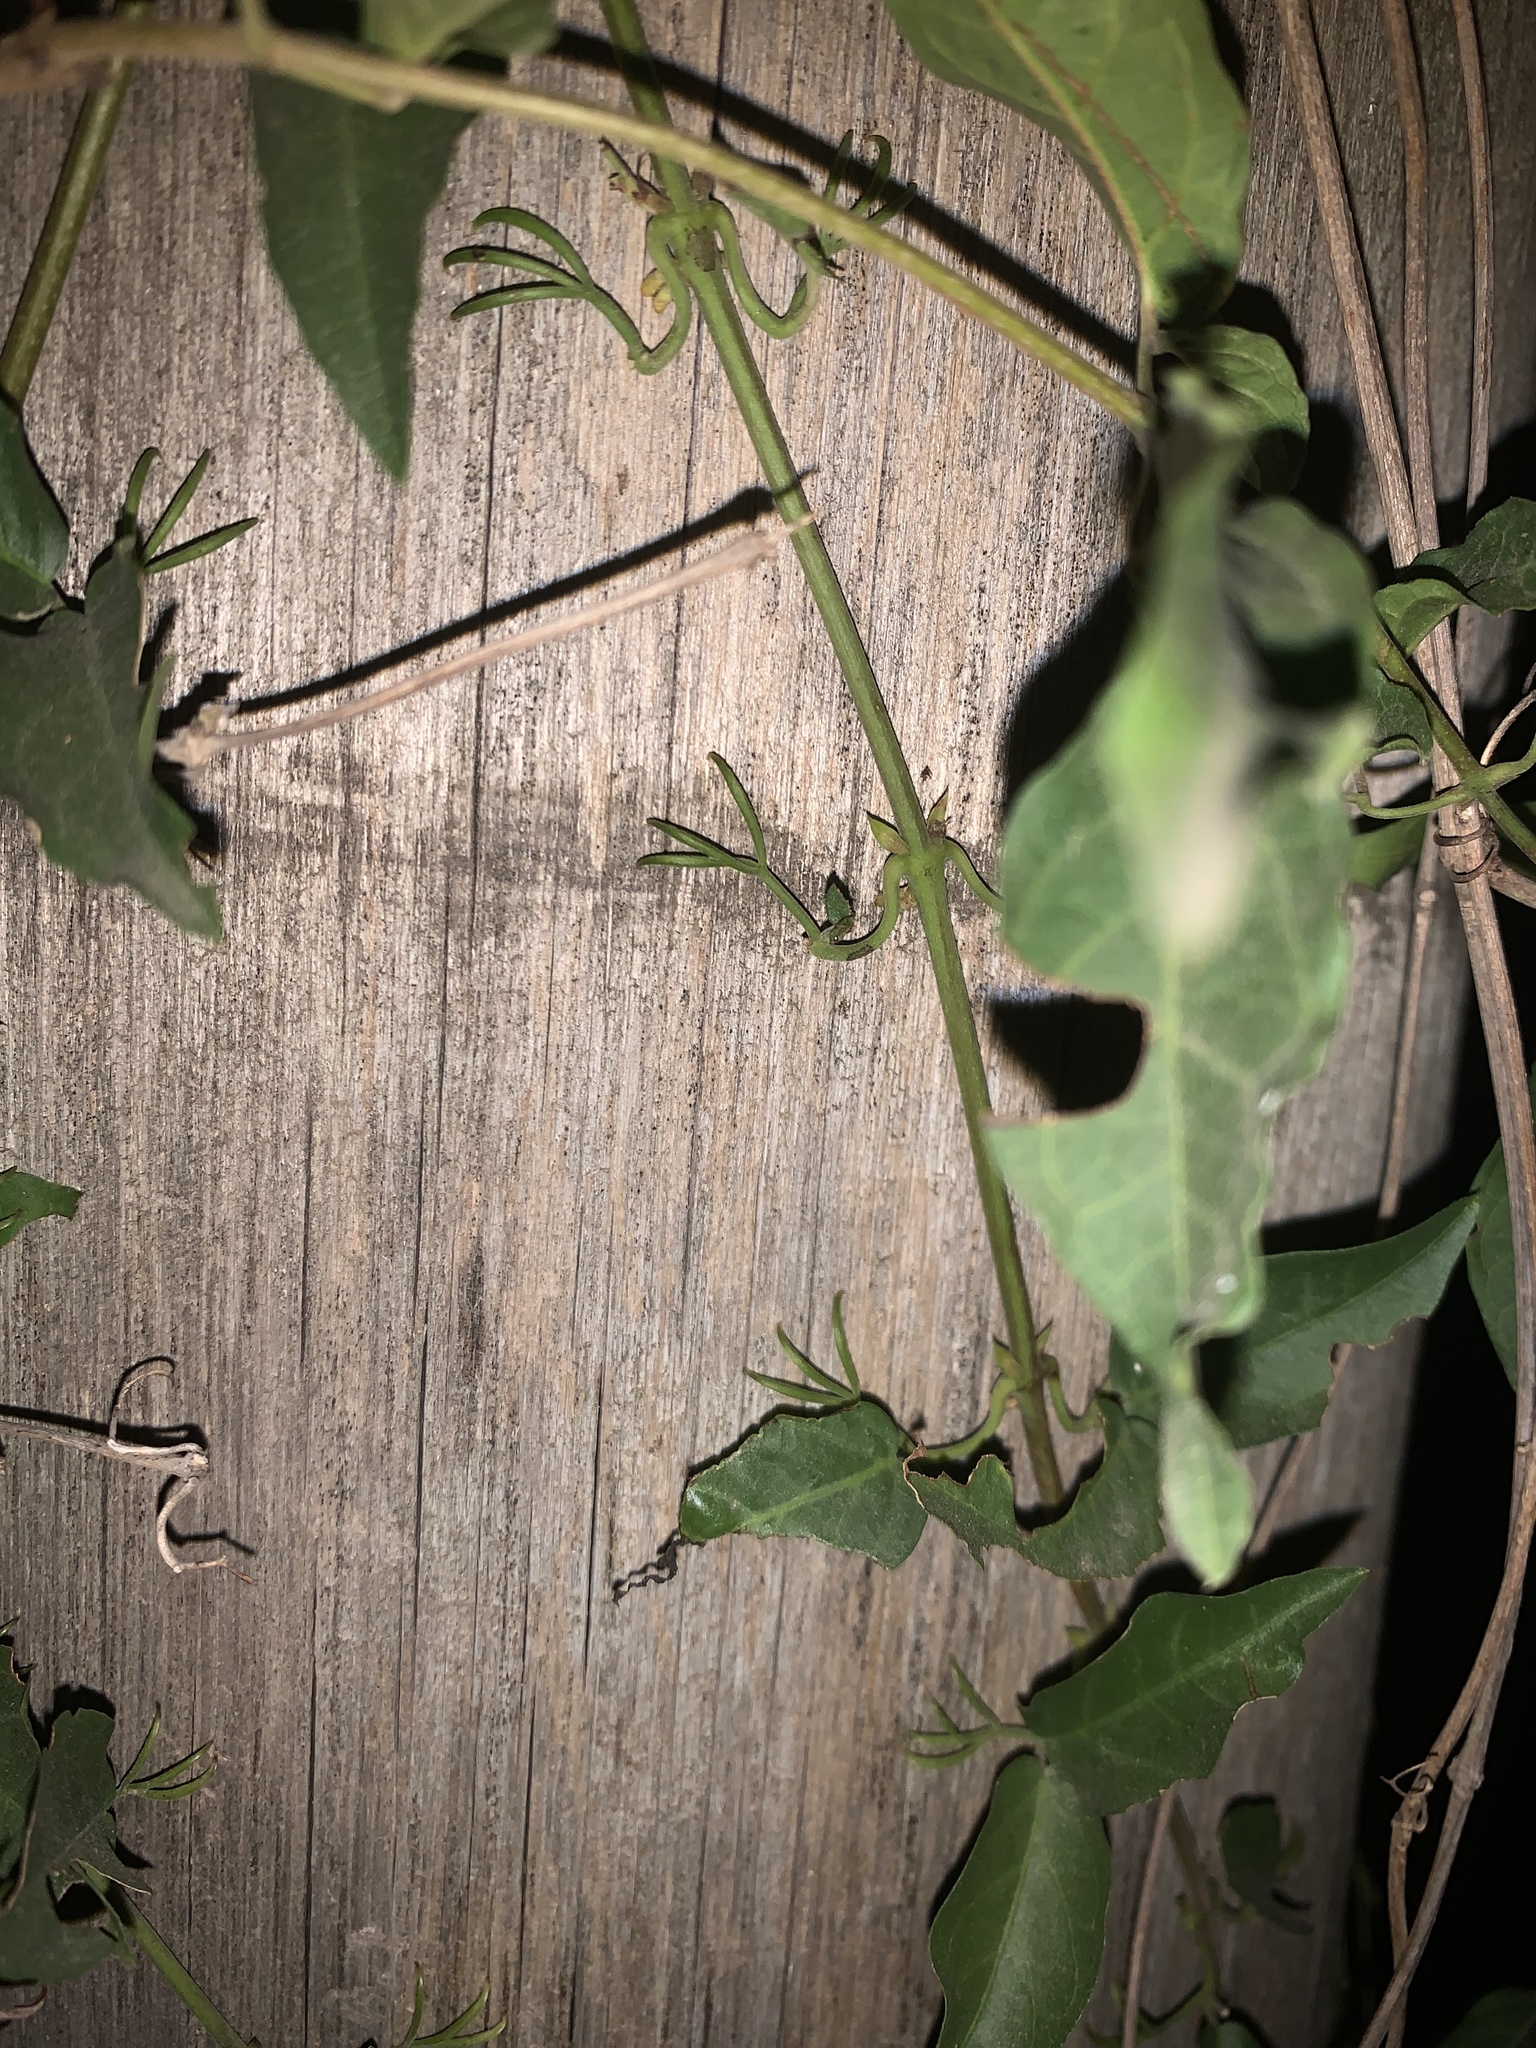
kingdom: Plantae
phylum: Tracheophyta
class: Magnoliopsida
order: Lamiales
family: Bignoniaceae
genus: Dolichandra
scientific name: Dolichandra unguis-cati
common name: Catclaw vine
